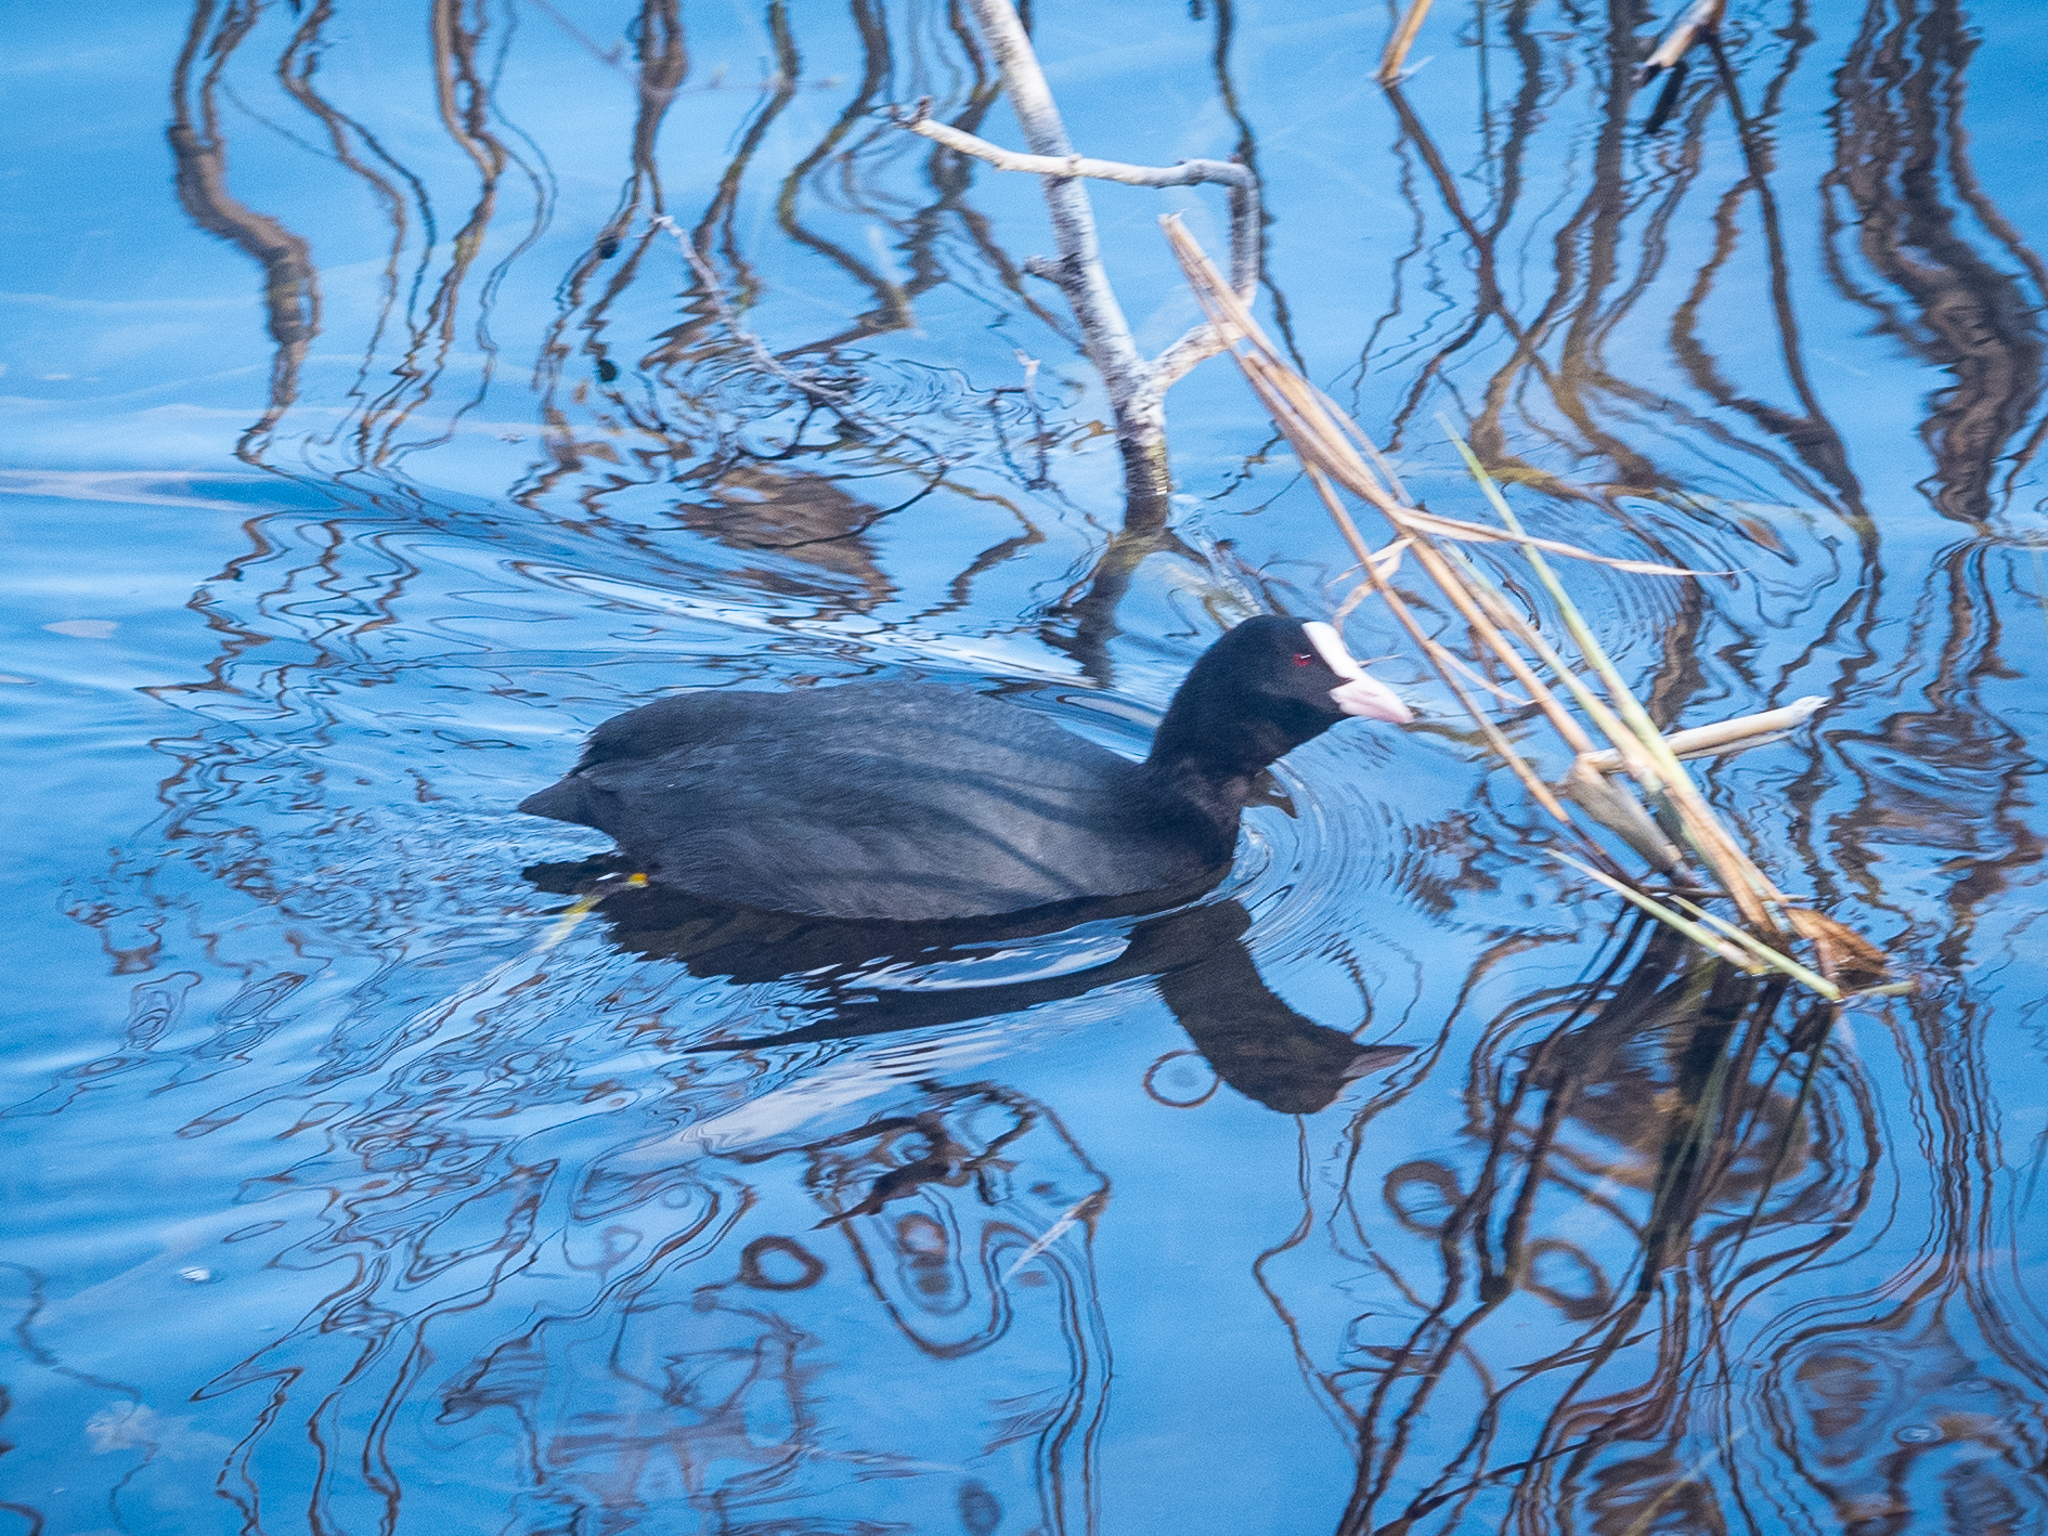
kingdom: Animalia
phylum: Chordata
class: Aves
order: Gruiformes
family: Rallidae
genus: Fulica
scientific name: Fulica atra
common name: Eurasian coot
